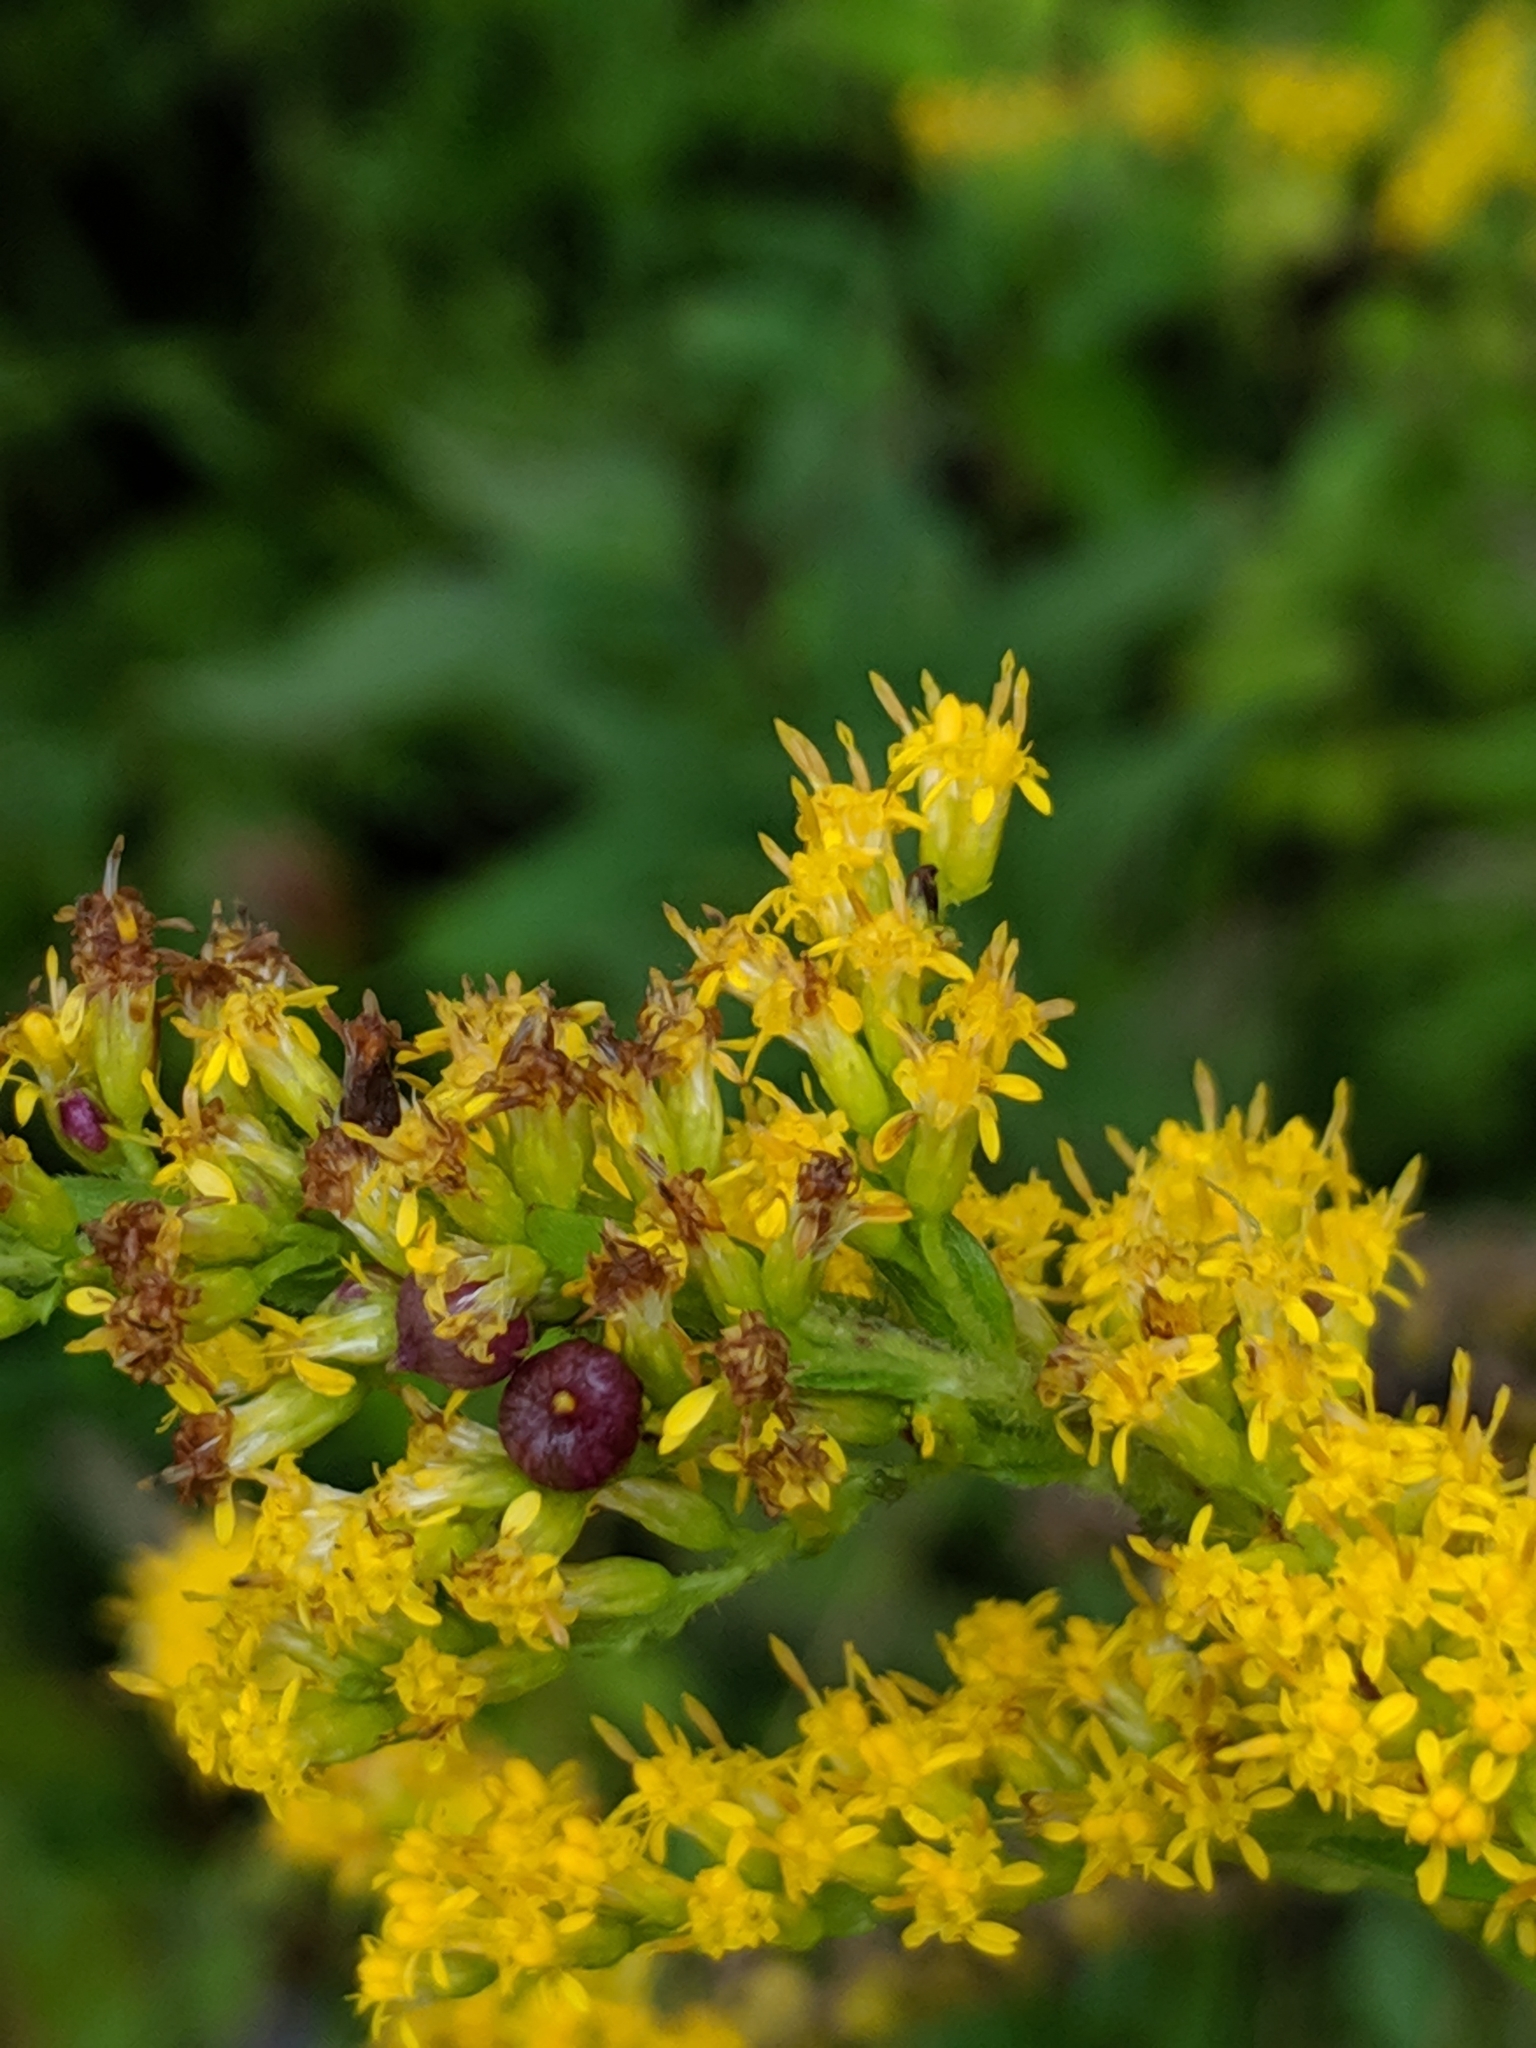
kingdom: Animalia
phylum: Arthropoda
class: Insecta
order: Diptera
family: Cecidomyiidae
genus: Schizomyia
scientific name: Schizomyia racemicola
